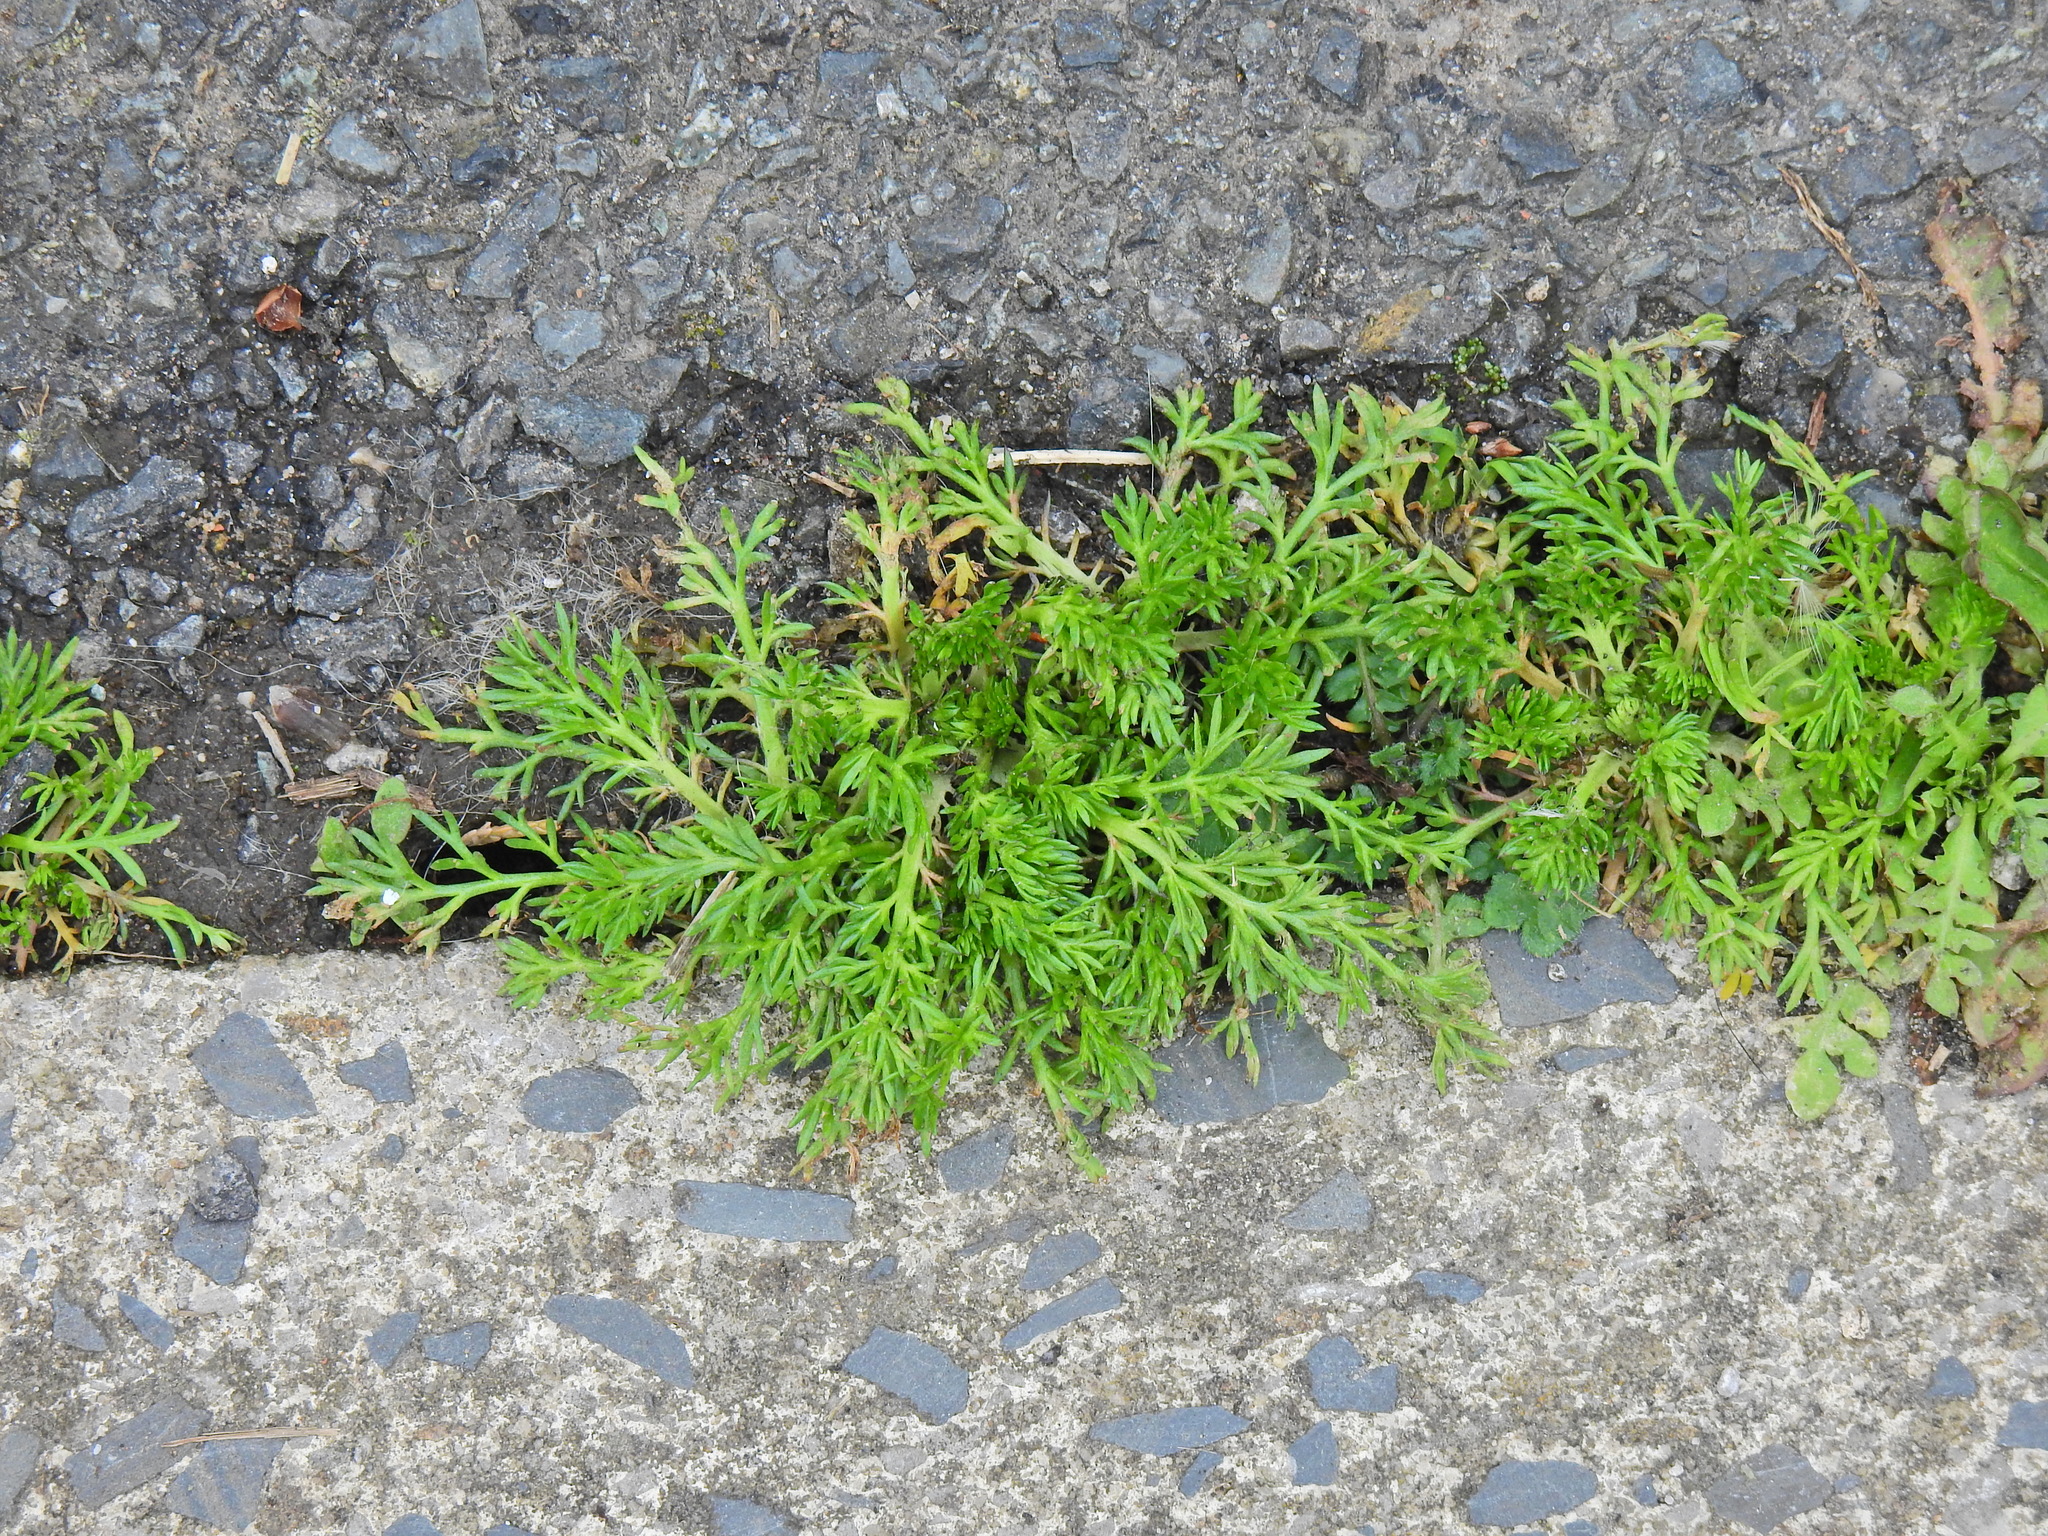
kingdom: Plantae
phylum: Tracheophyta
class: Magnoliopsida
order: Asterales
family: Asteraceae
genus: Tripleurospermum
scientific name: Tripleurospermum maritimum
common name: Sea mayweed
